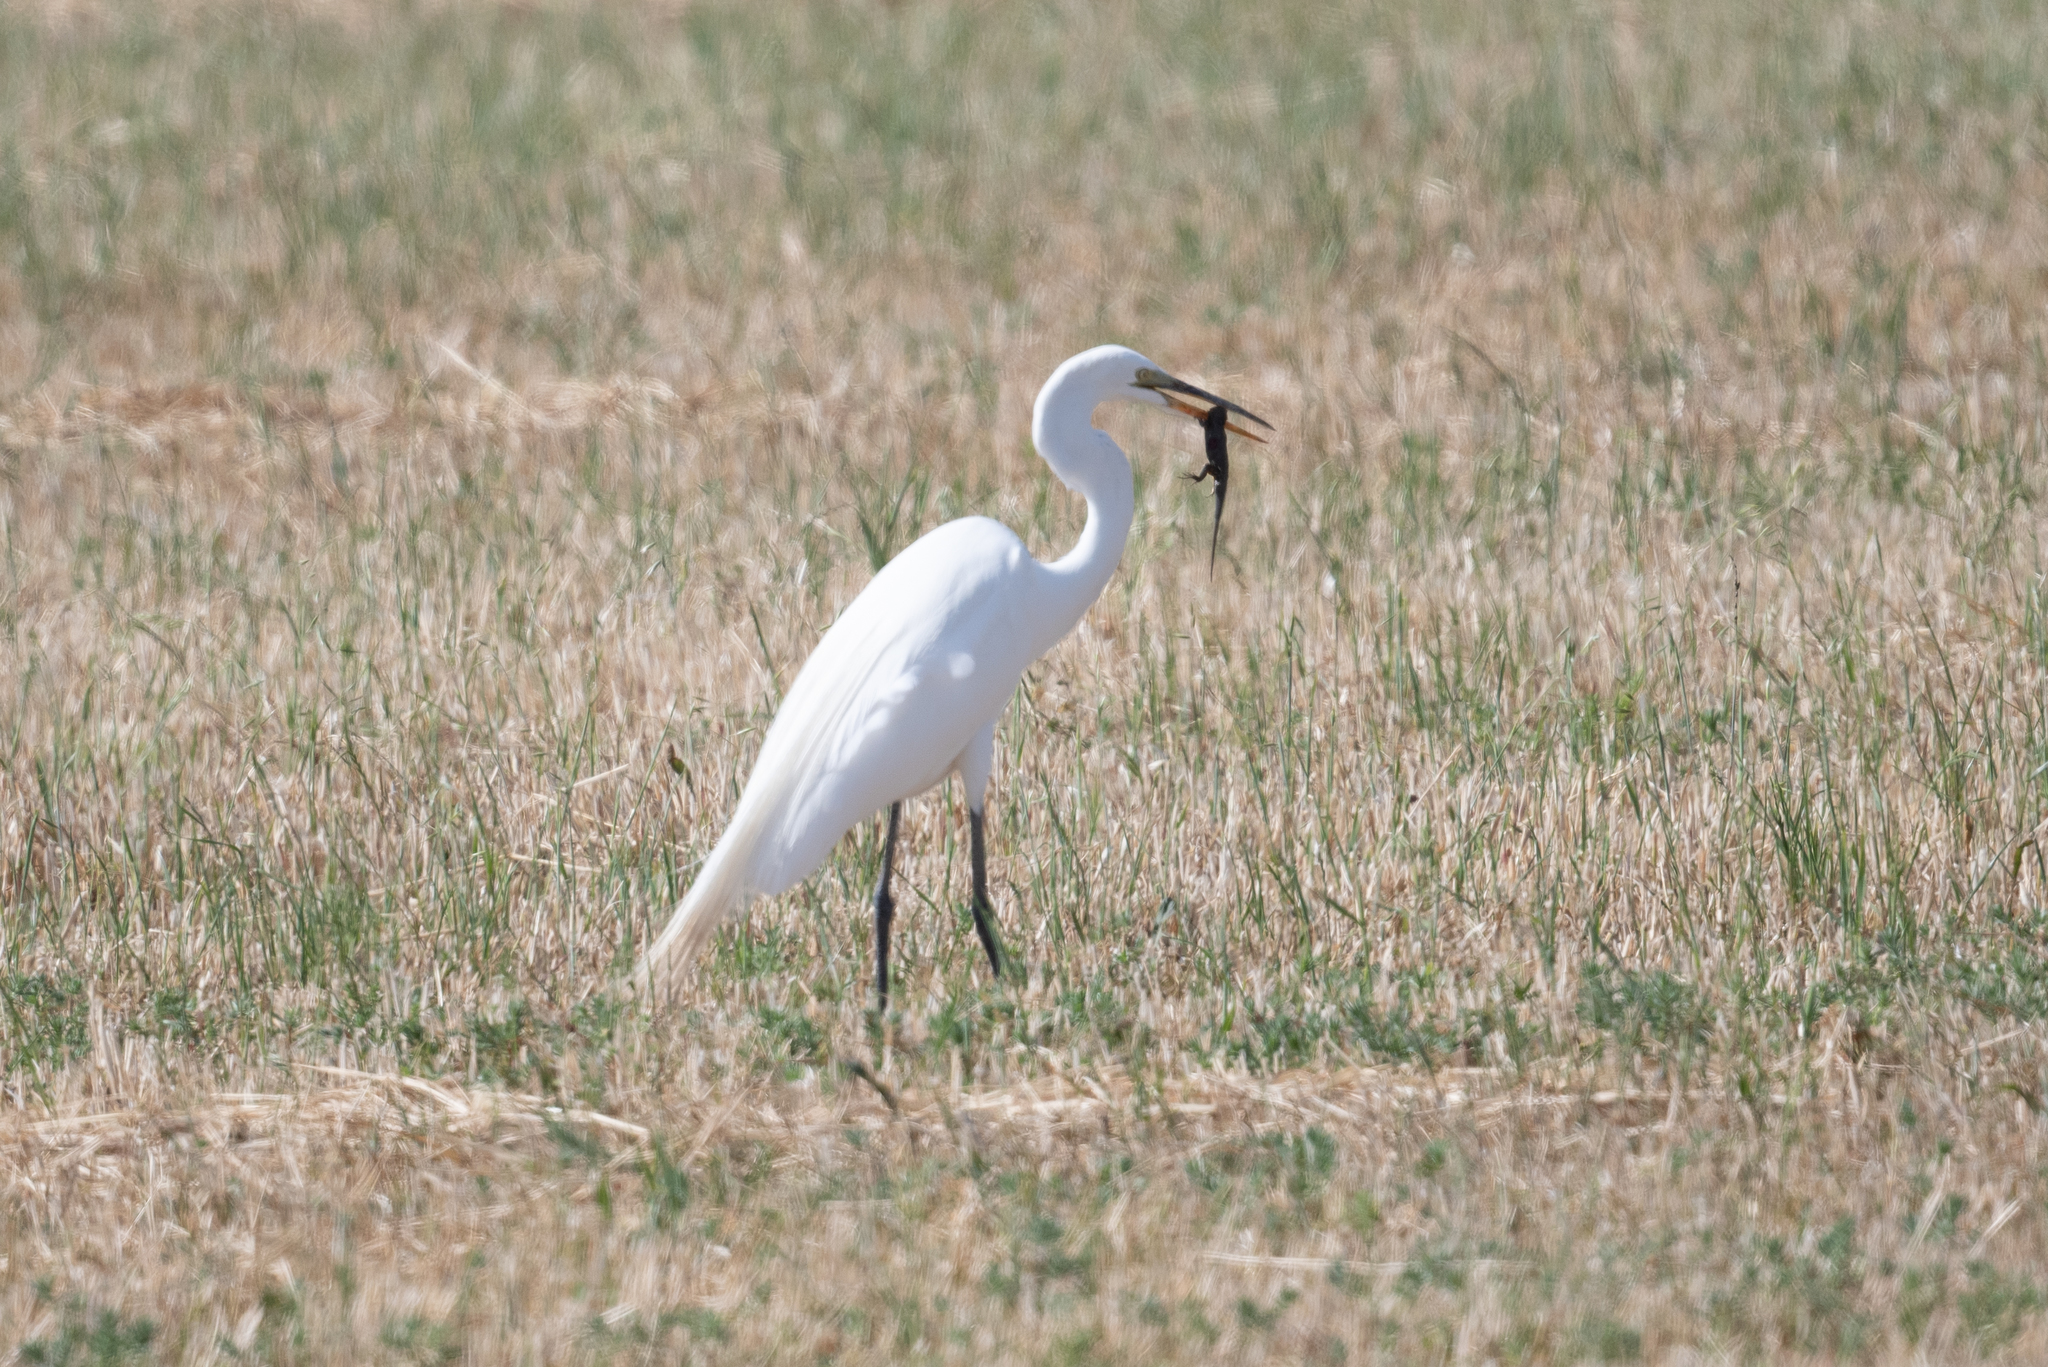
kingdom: Animalia
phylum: Chordata
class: Aves
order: Pelecaniformes
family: Ardeidae
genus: Ardea
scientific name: Ardea alba
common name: Great egret
